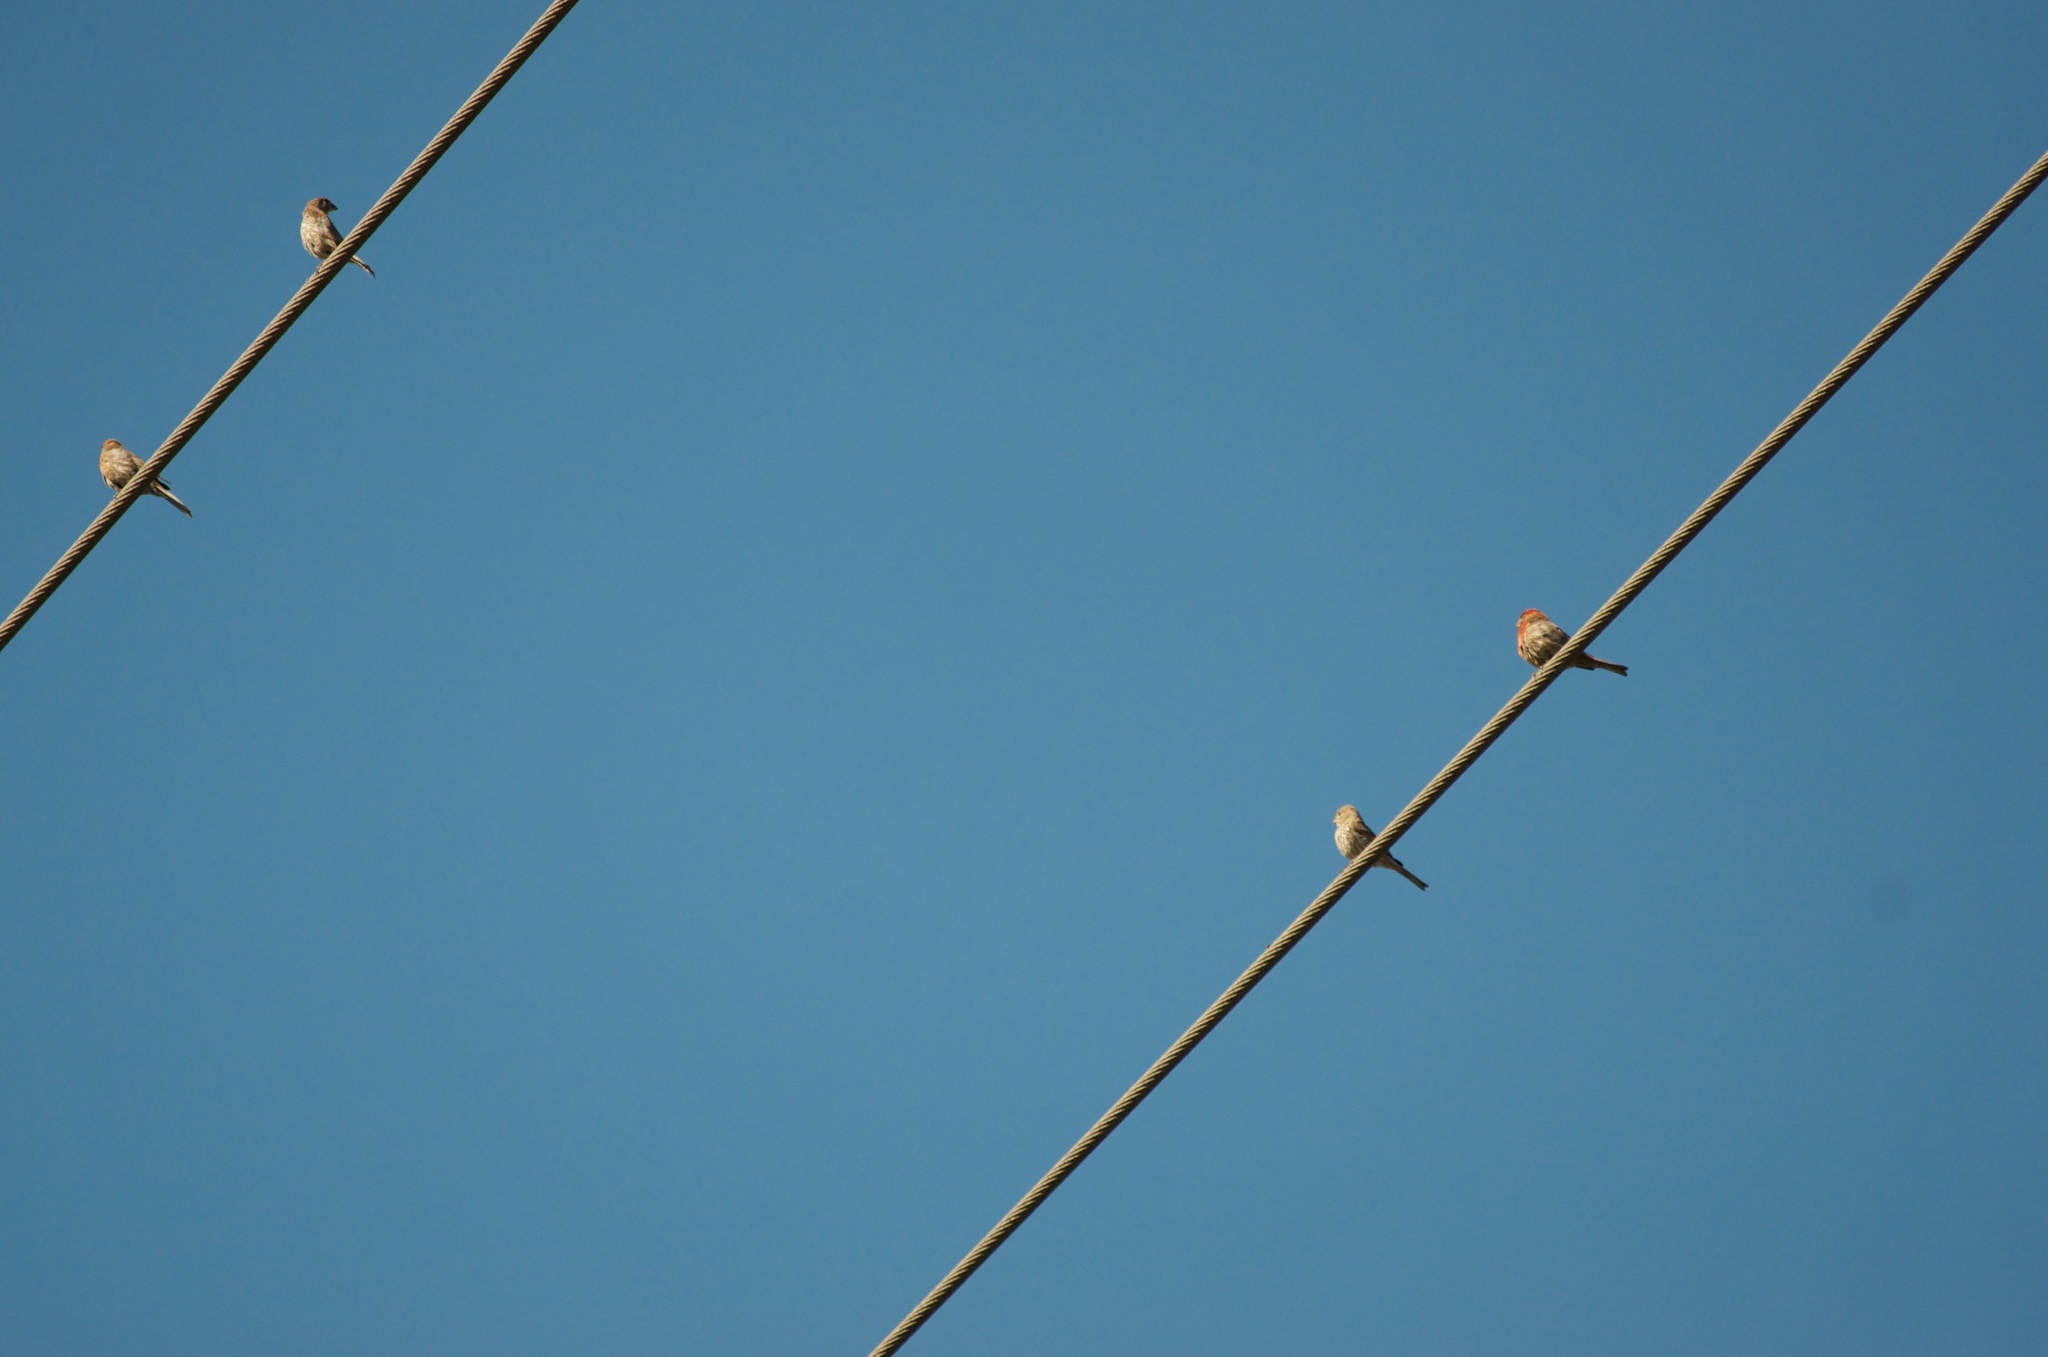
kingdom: Animalia
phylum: Chordata
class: Aves
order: Passeriformes
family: Fringillidae
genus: Haemorhous
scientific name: Haemorhous mexicanus
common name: House finch
